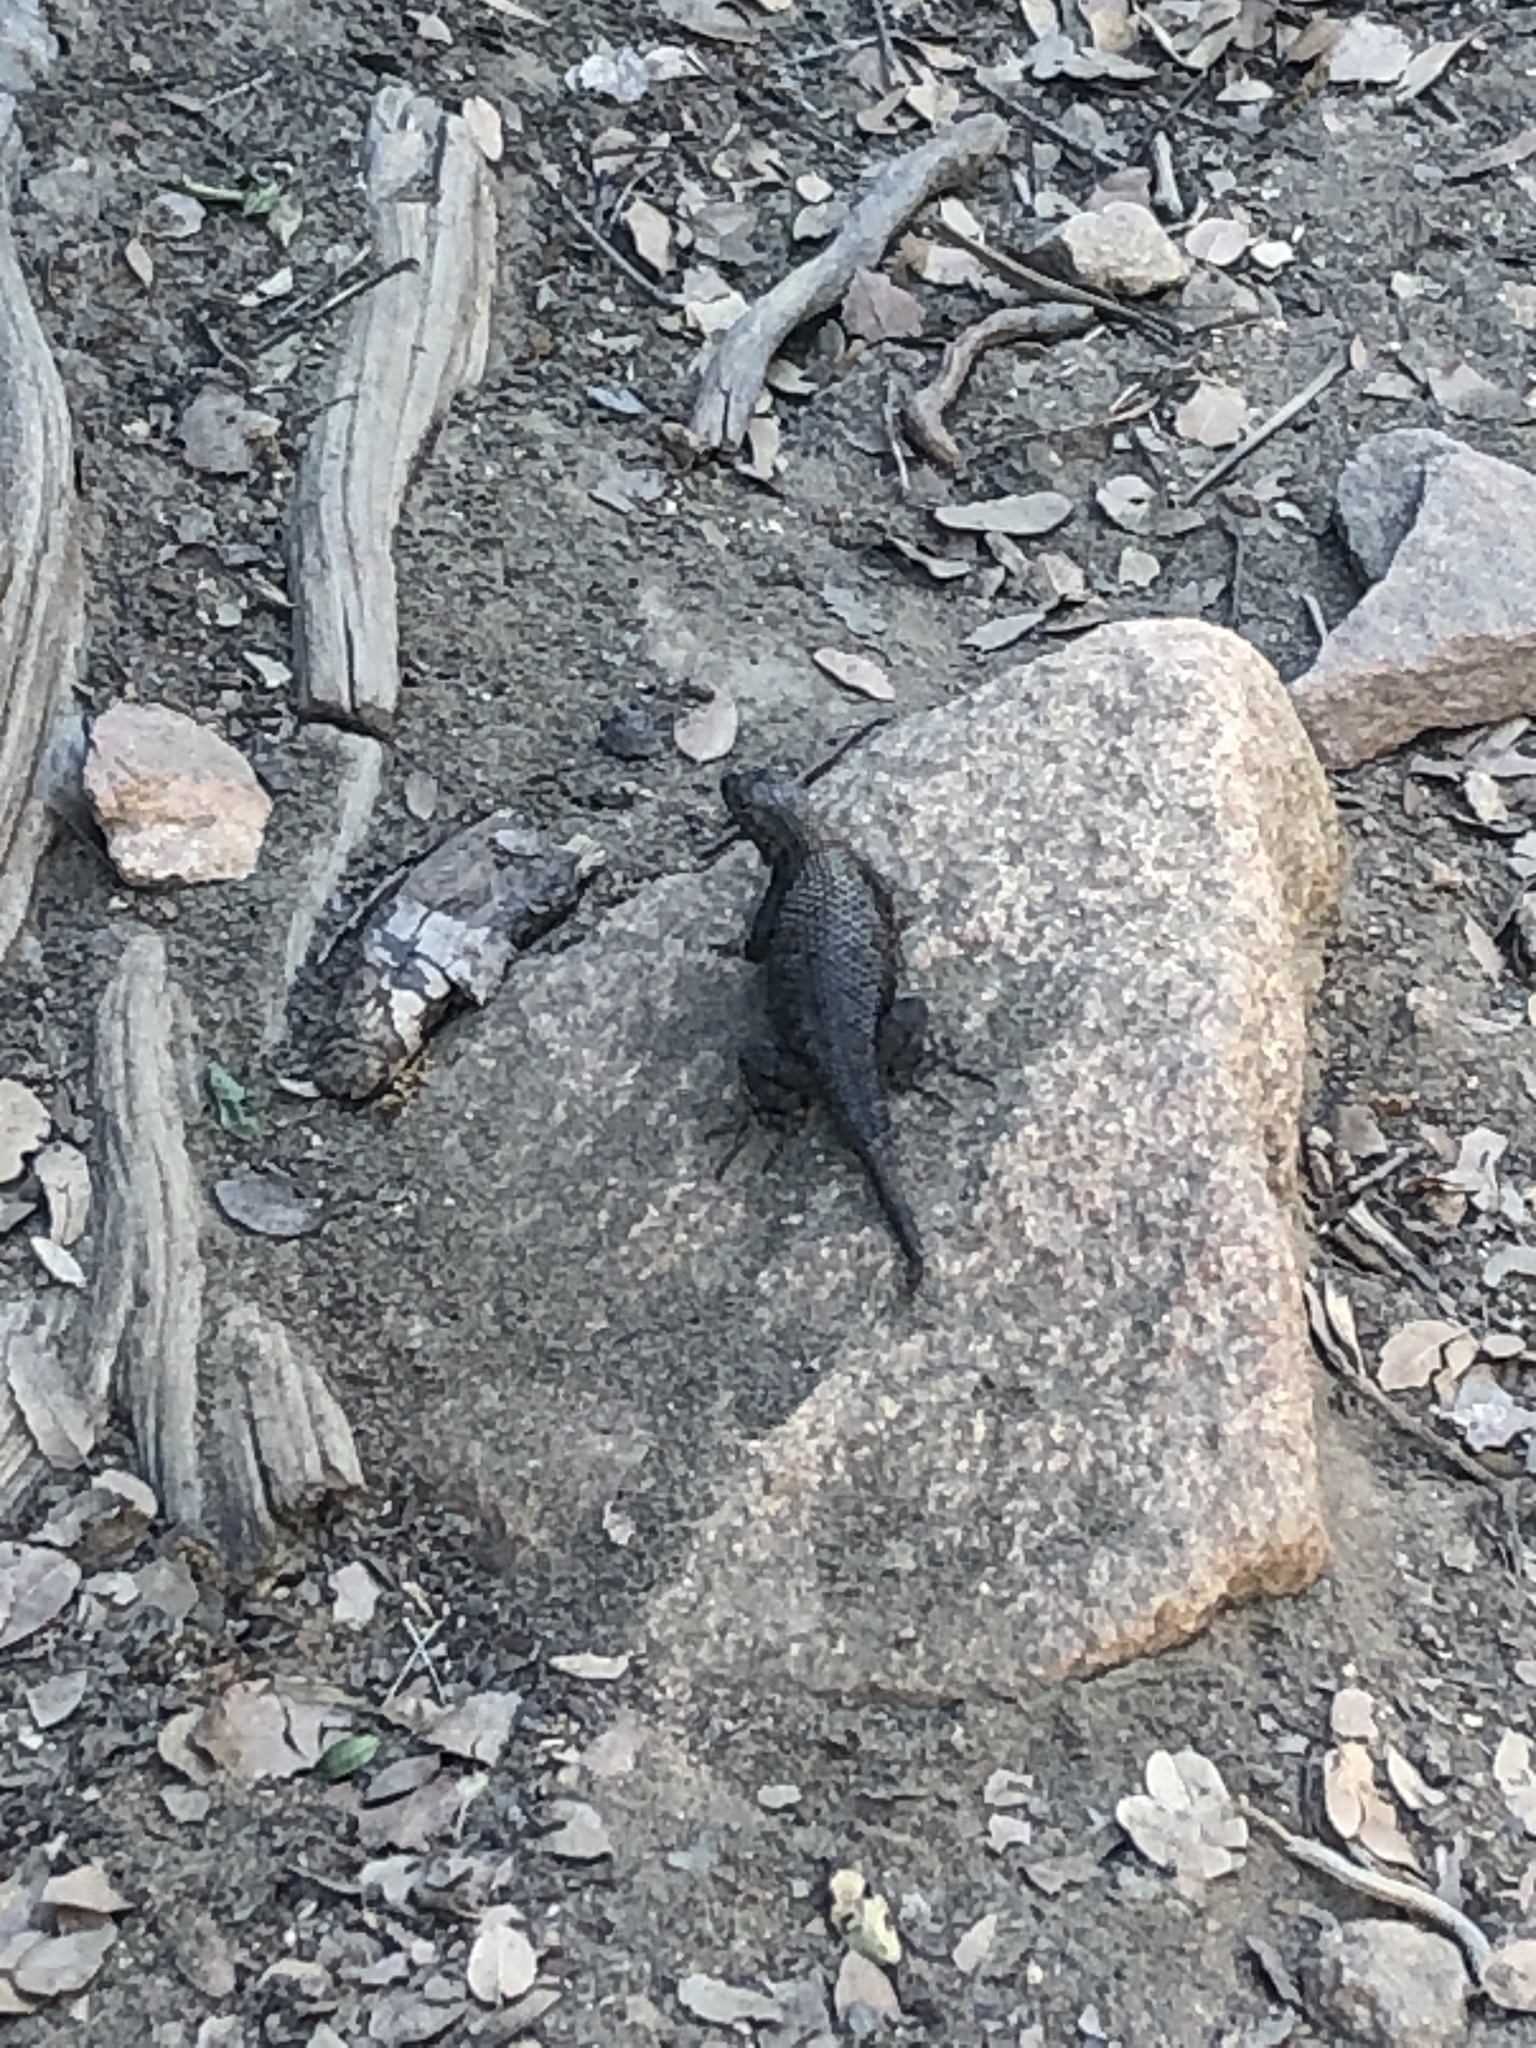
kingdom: Animalia
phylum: Chordata
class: Squamata
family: Phrynosomatidae
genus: Sceloporus
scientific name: Sceloporus orcutti
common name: Granite spiny lizard
